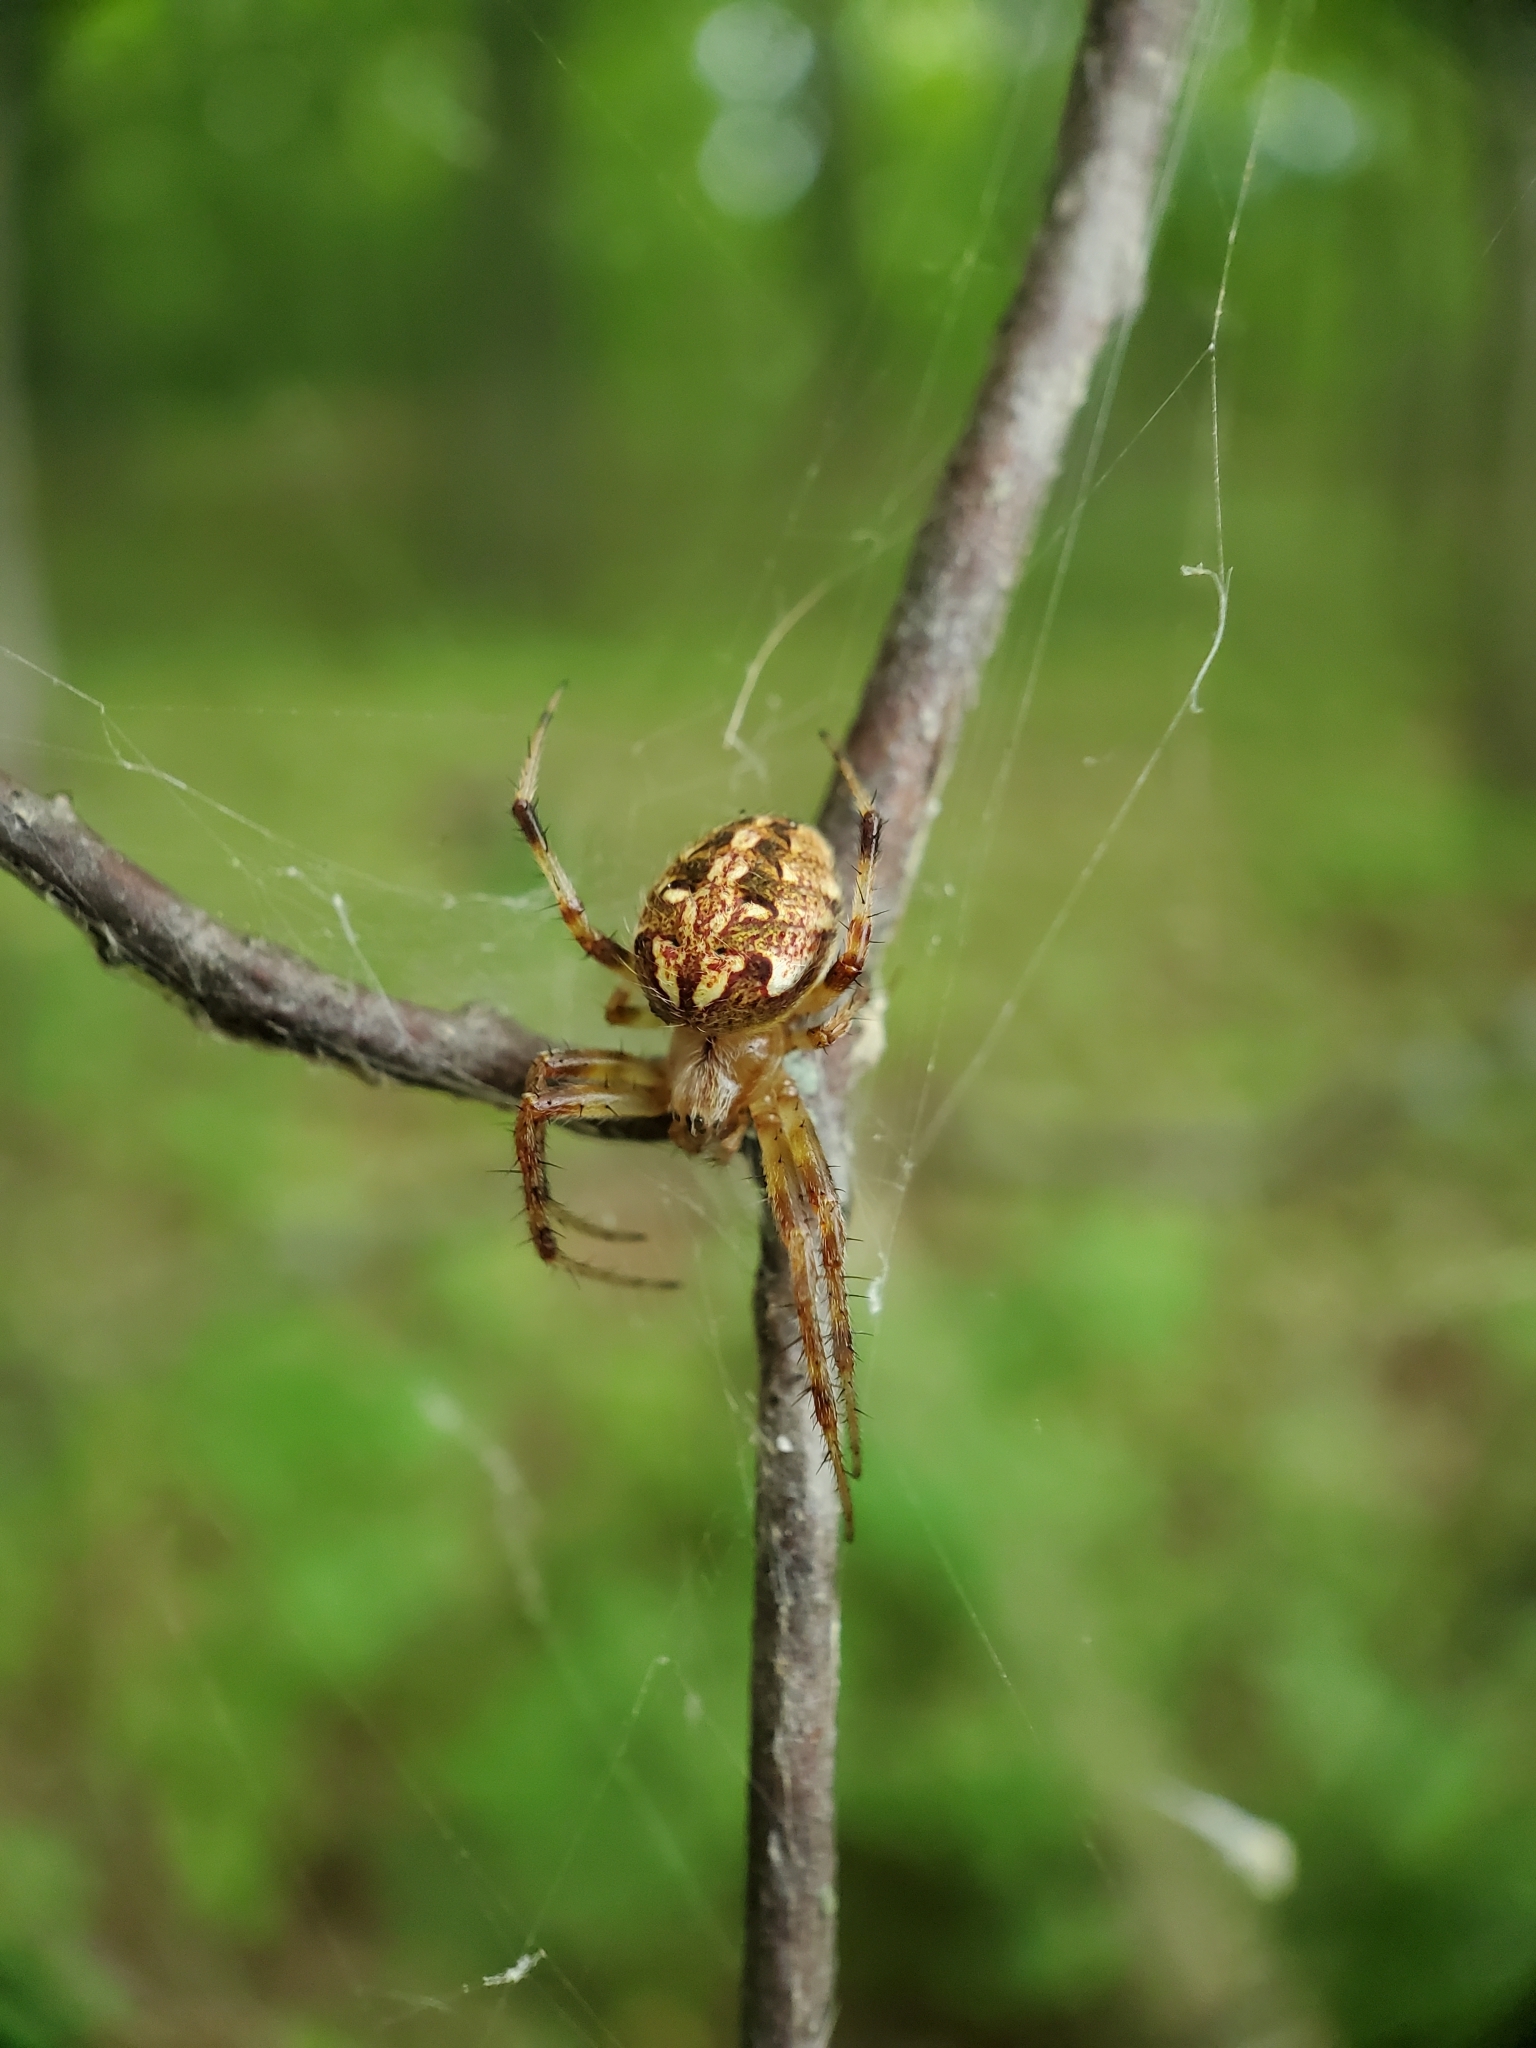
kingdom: Animalia
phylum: Arthropoda
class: Arachnida
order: Araneae
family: Araneidae
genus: Neoscona
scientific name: Neoscona arabesca
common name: Orb weavers
